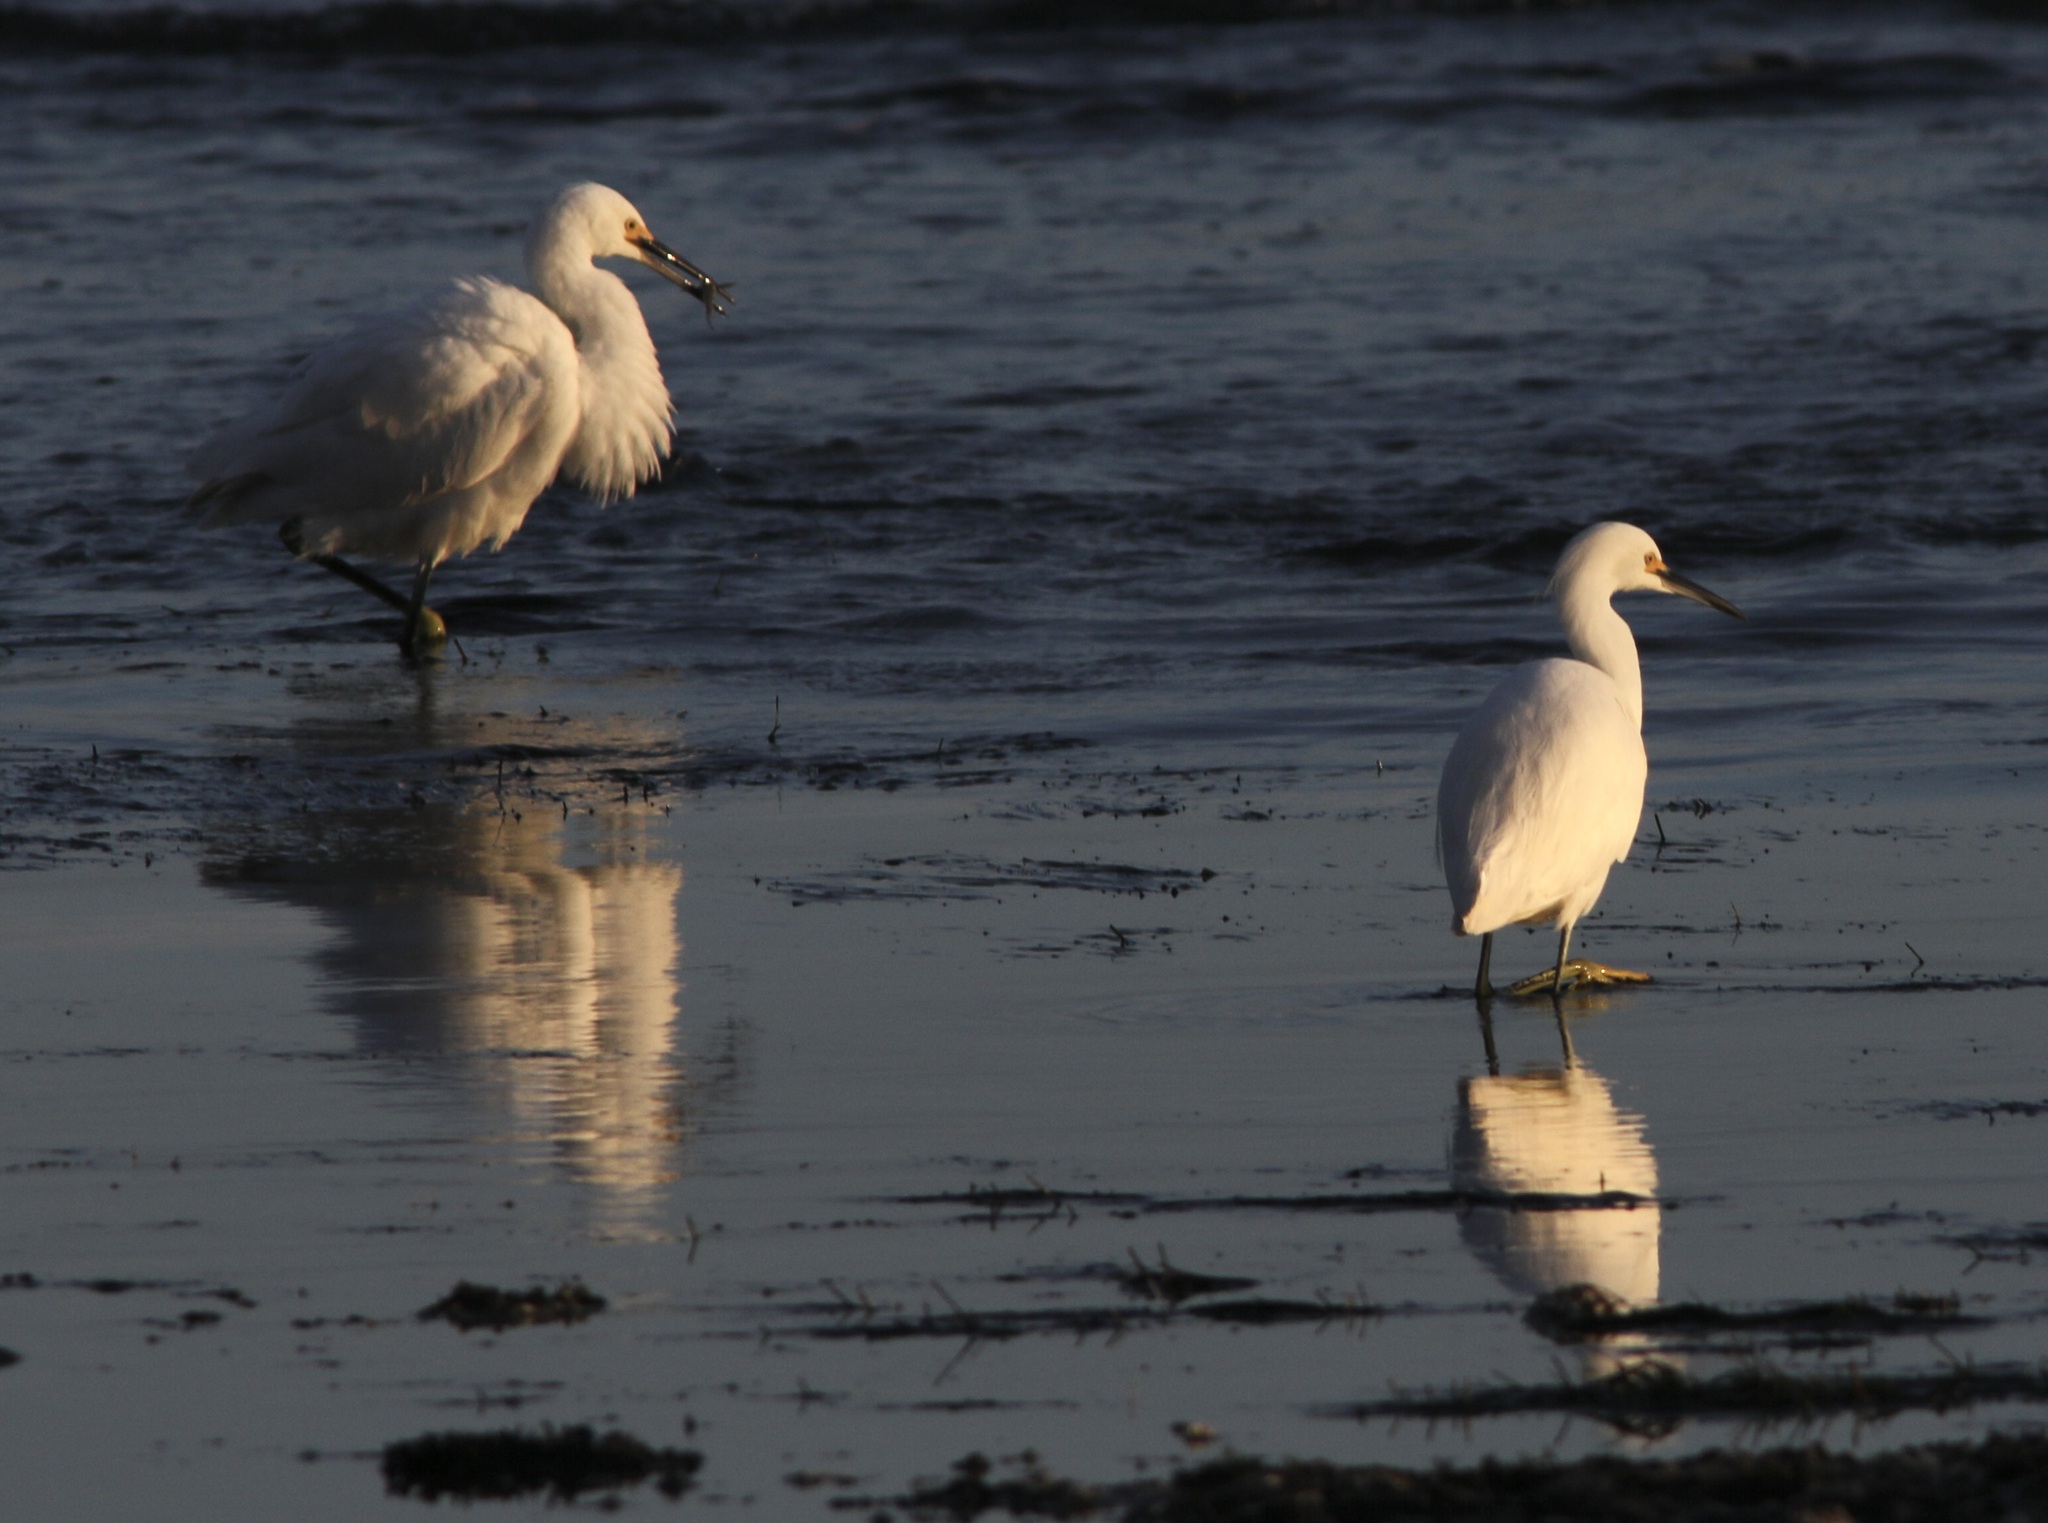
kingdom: Animalia
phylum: Chordata
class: Aves
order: Pelecaniformes
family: Ardeidae
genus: Egretta
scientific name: Egretta thula
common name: Snowy egret
